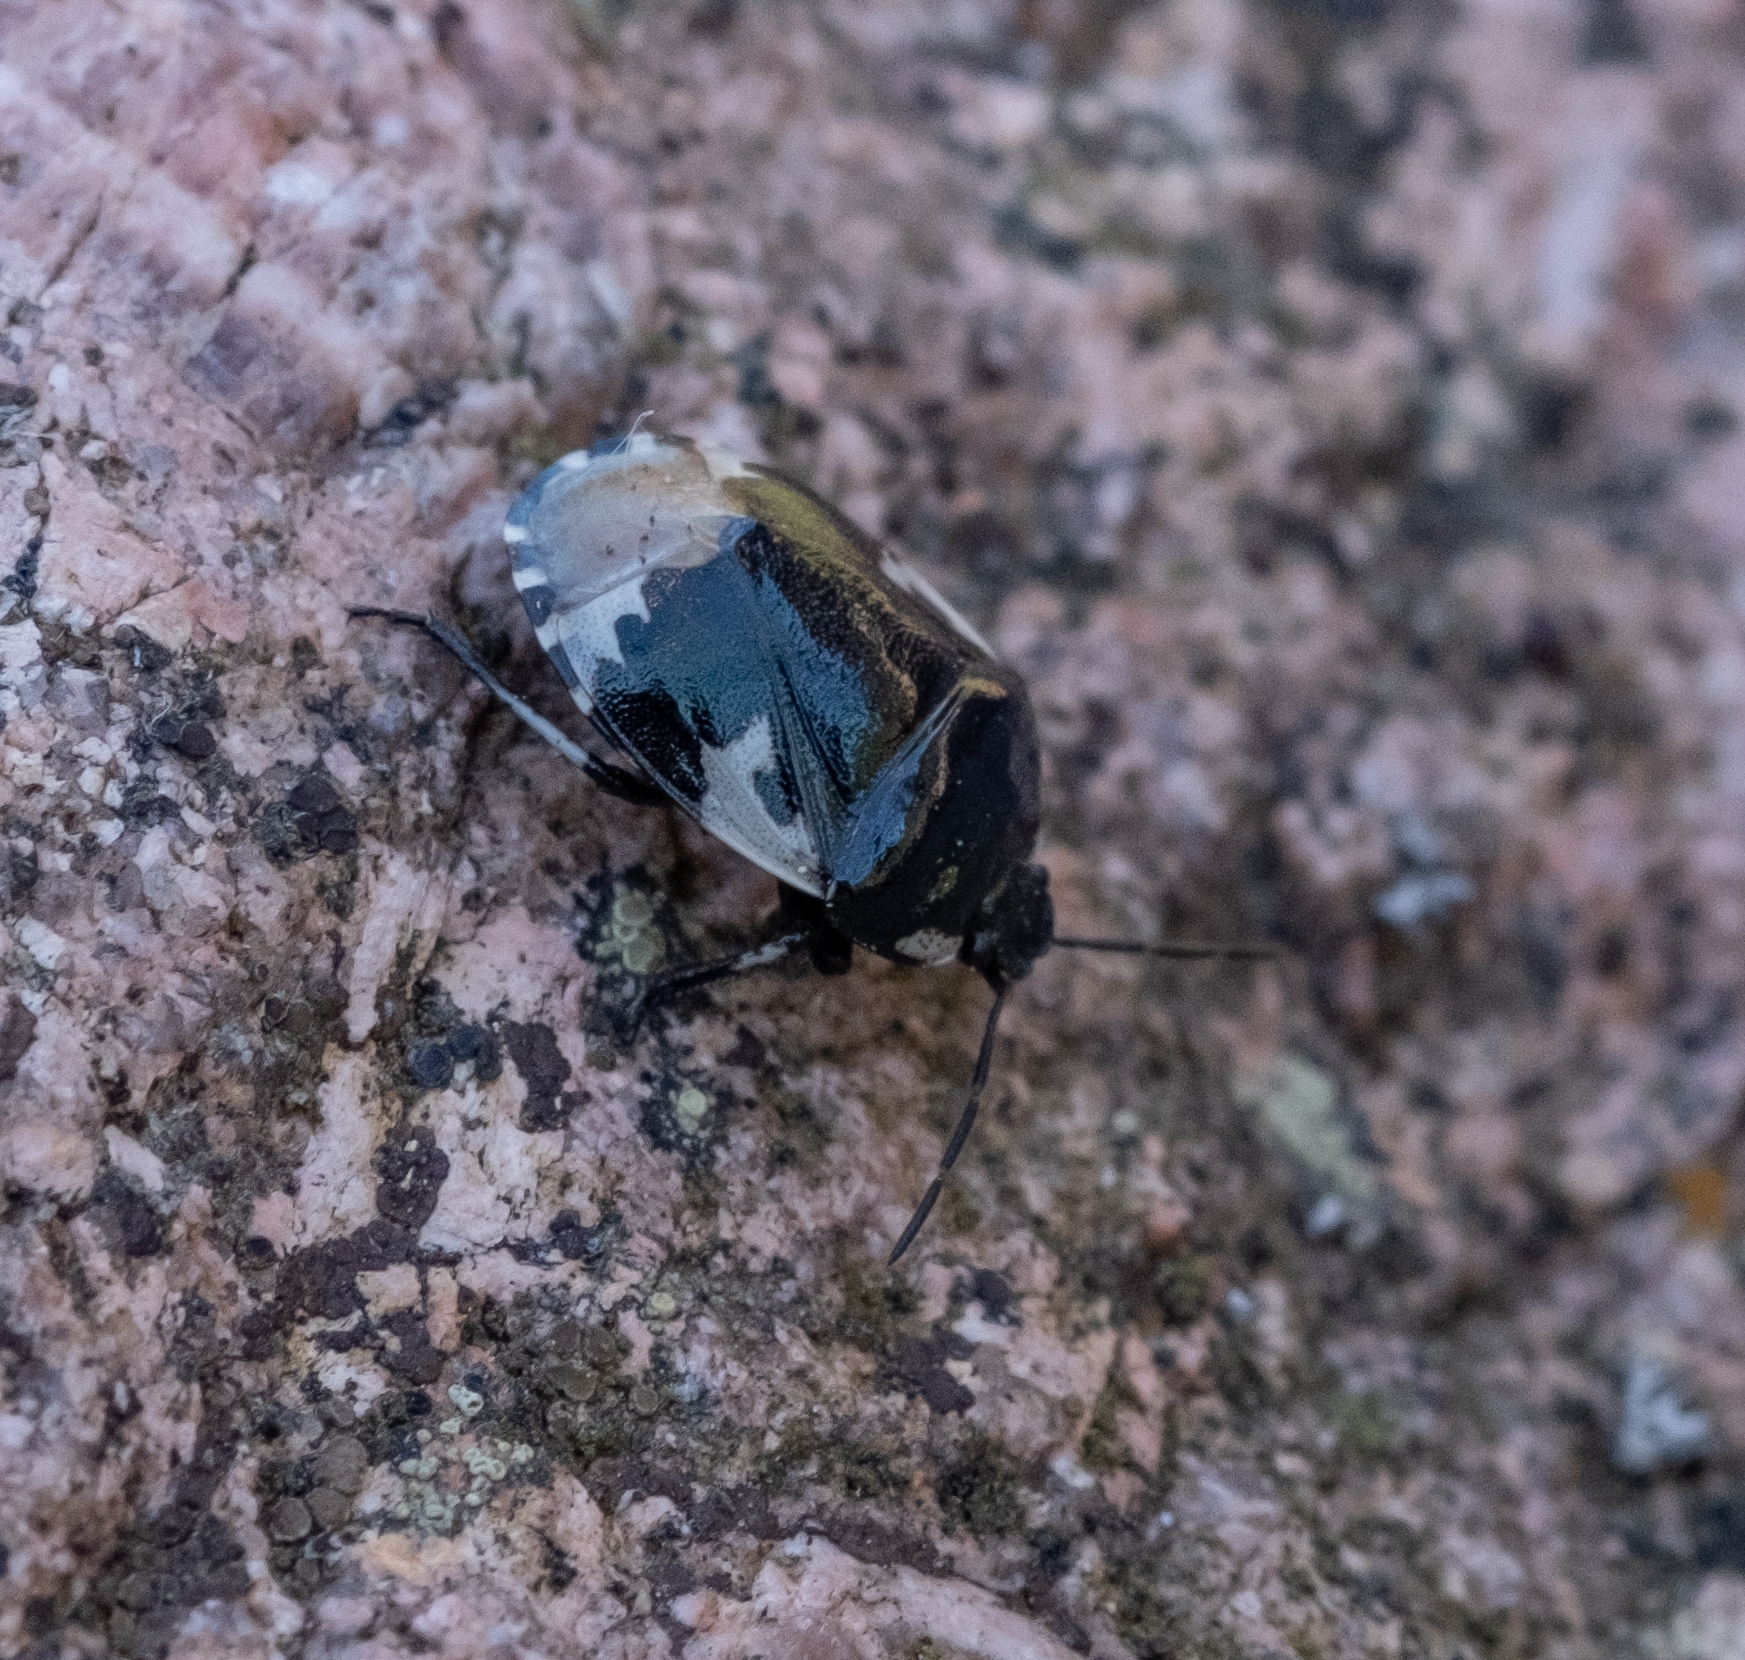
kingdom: Animalia
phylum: Arthropoda
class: Insecta
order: Hemiptera
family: Cydnidae
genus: Tritomegas
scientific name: Tritomegas bicolor
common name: Pied shieldbug
